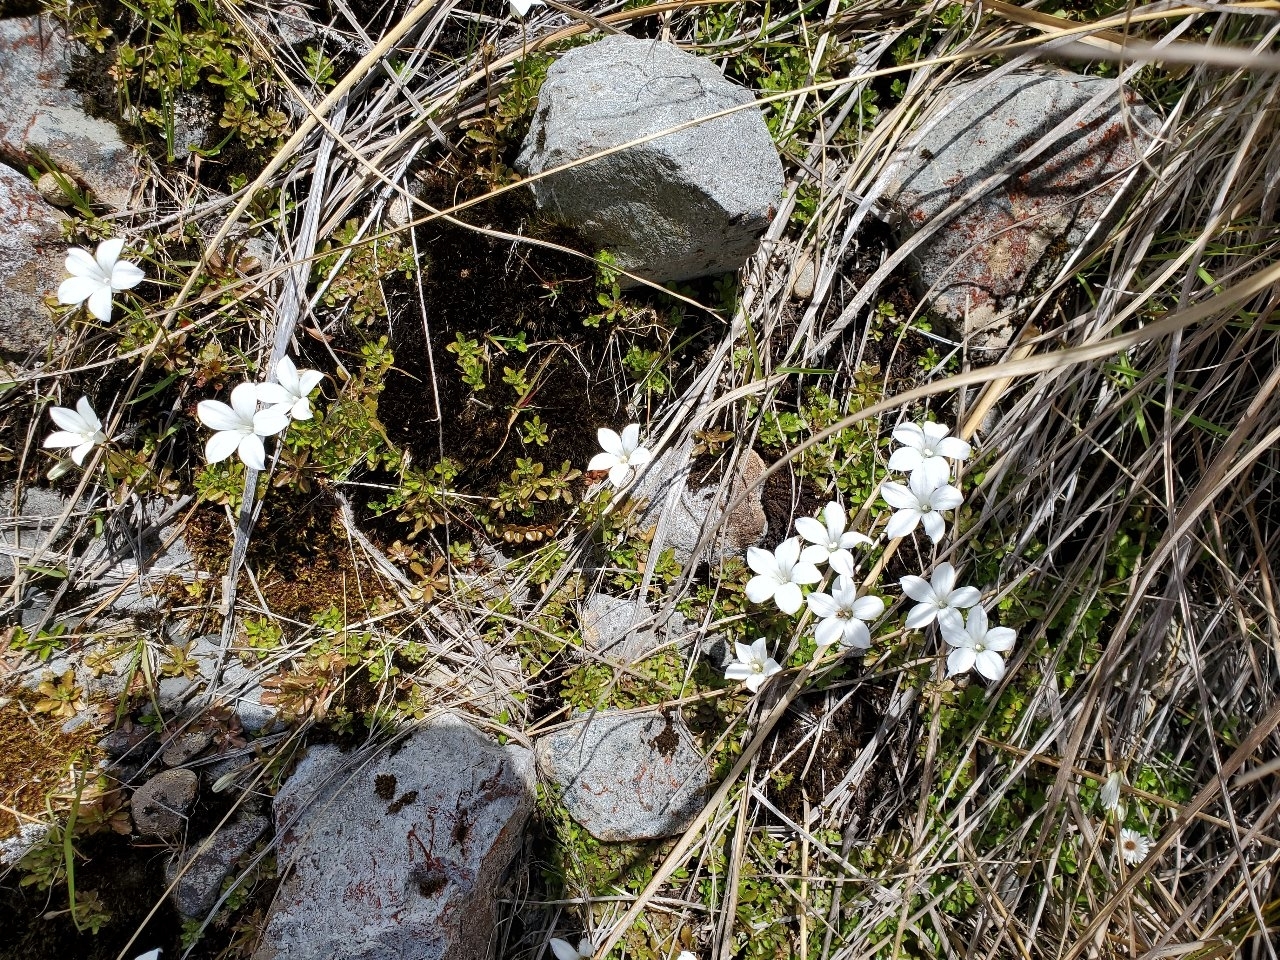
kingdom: Plantae
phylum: Tracheophyta
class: Magnoliopsida
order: Asterales
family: Campanulaceae
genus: Wahlenbergia
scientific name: Wahlenbergia albomarginata
